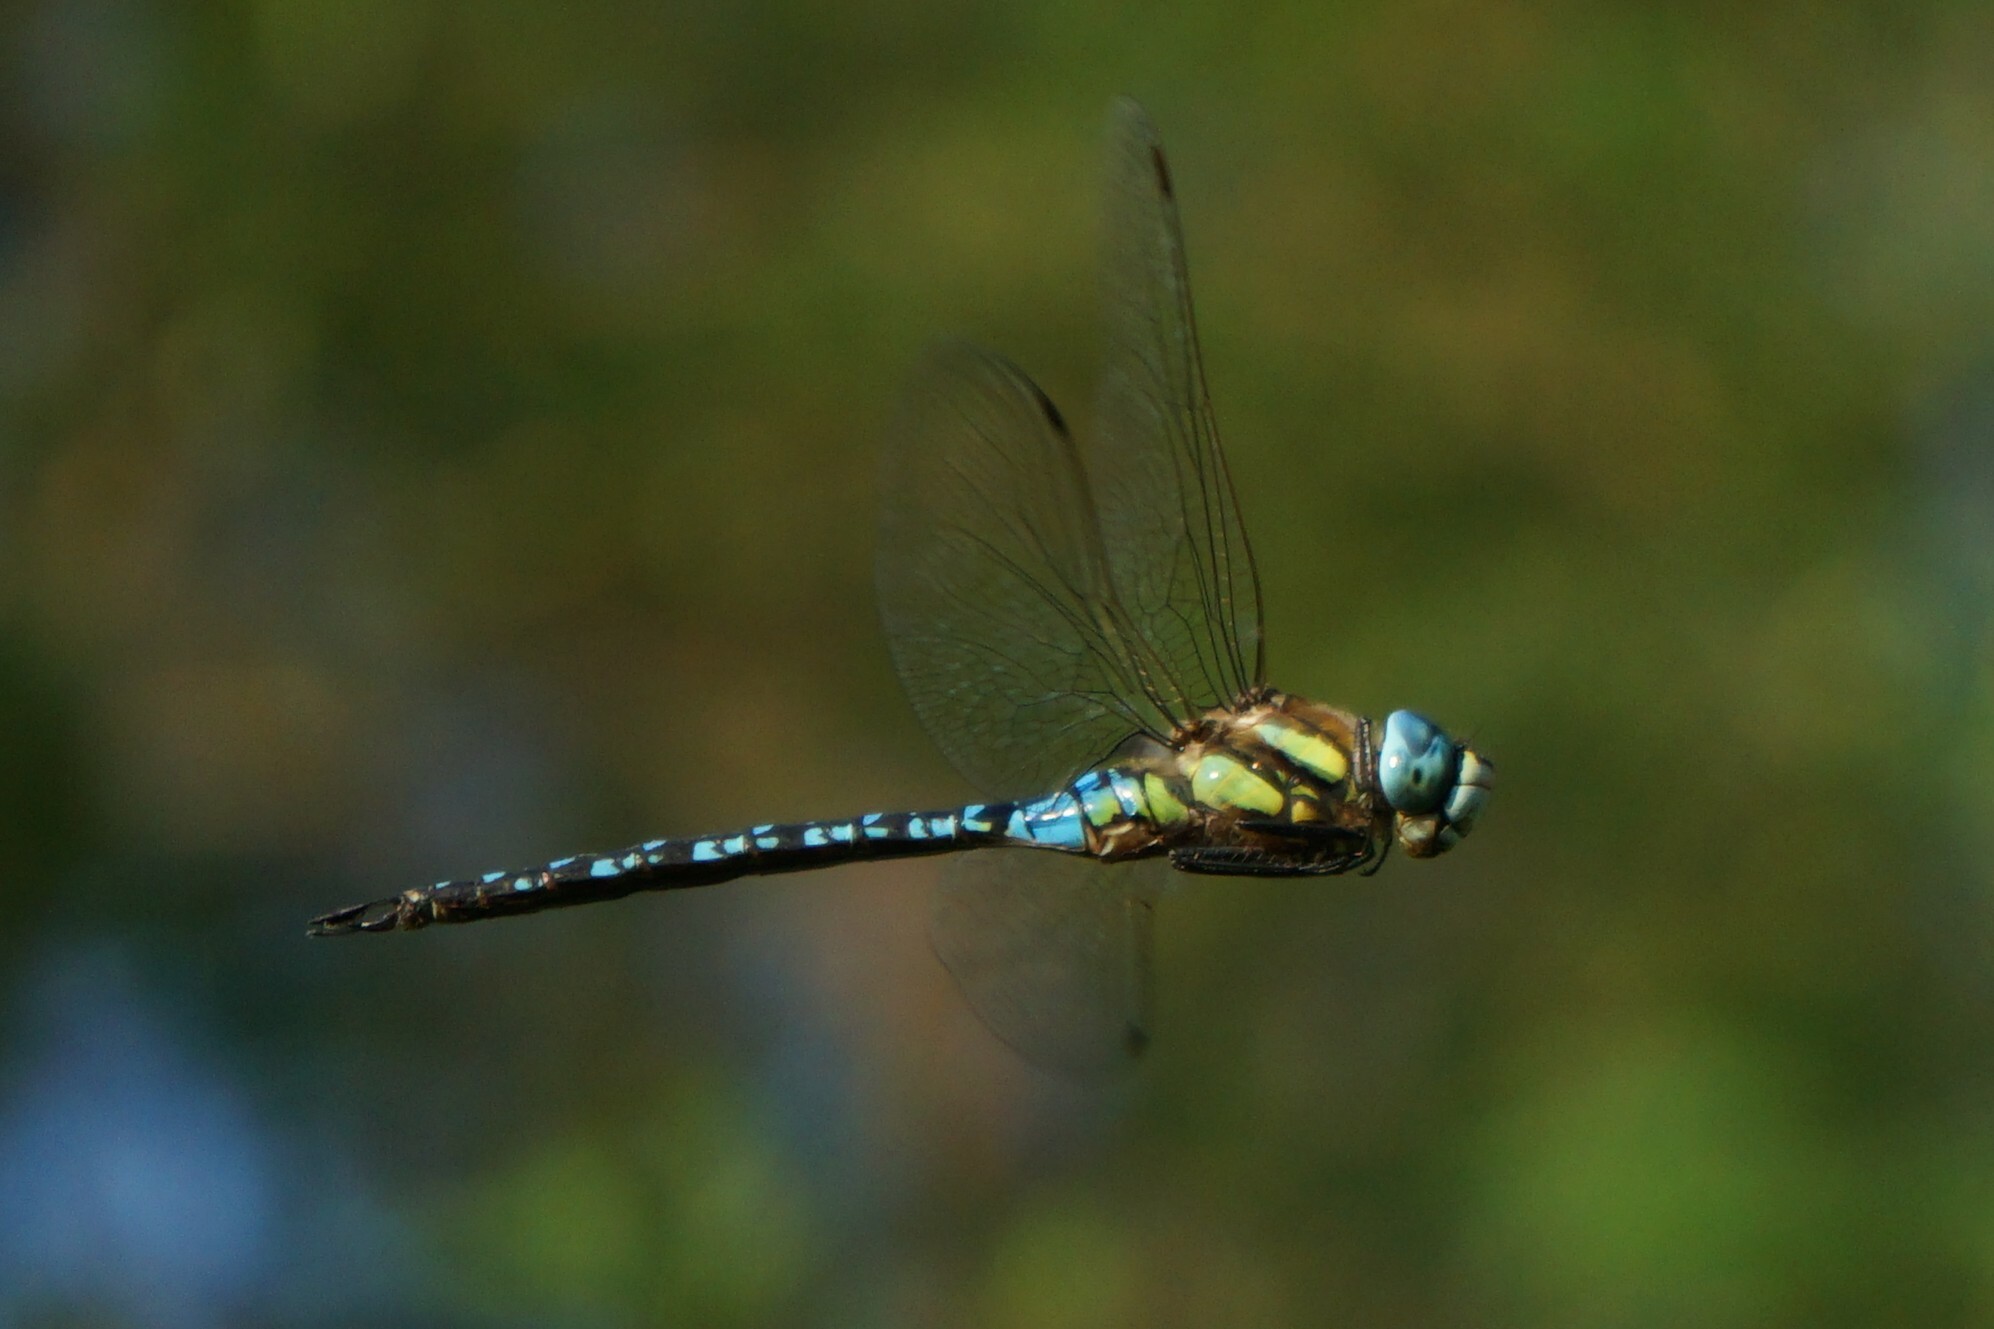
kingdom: Animalia
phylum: Arthropoda
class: Insecta
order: Odonata
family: Aeshnidae
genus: Aeshna
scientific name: Aeshna soneharai
